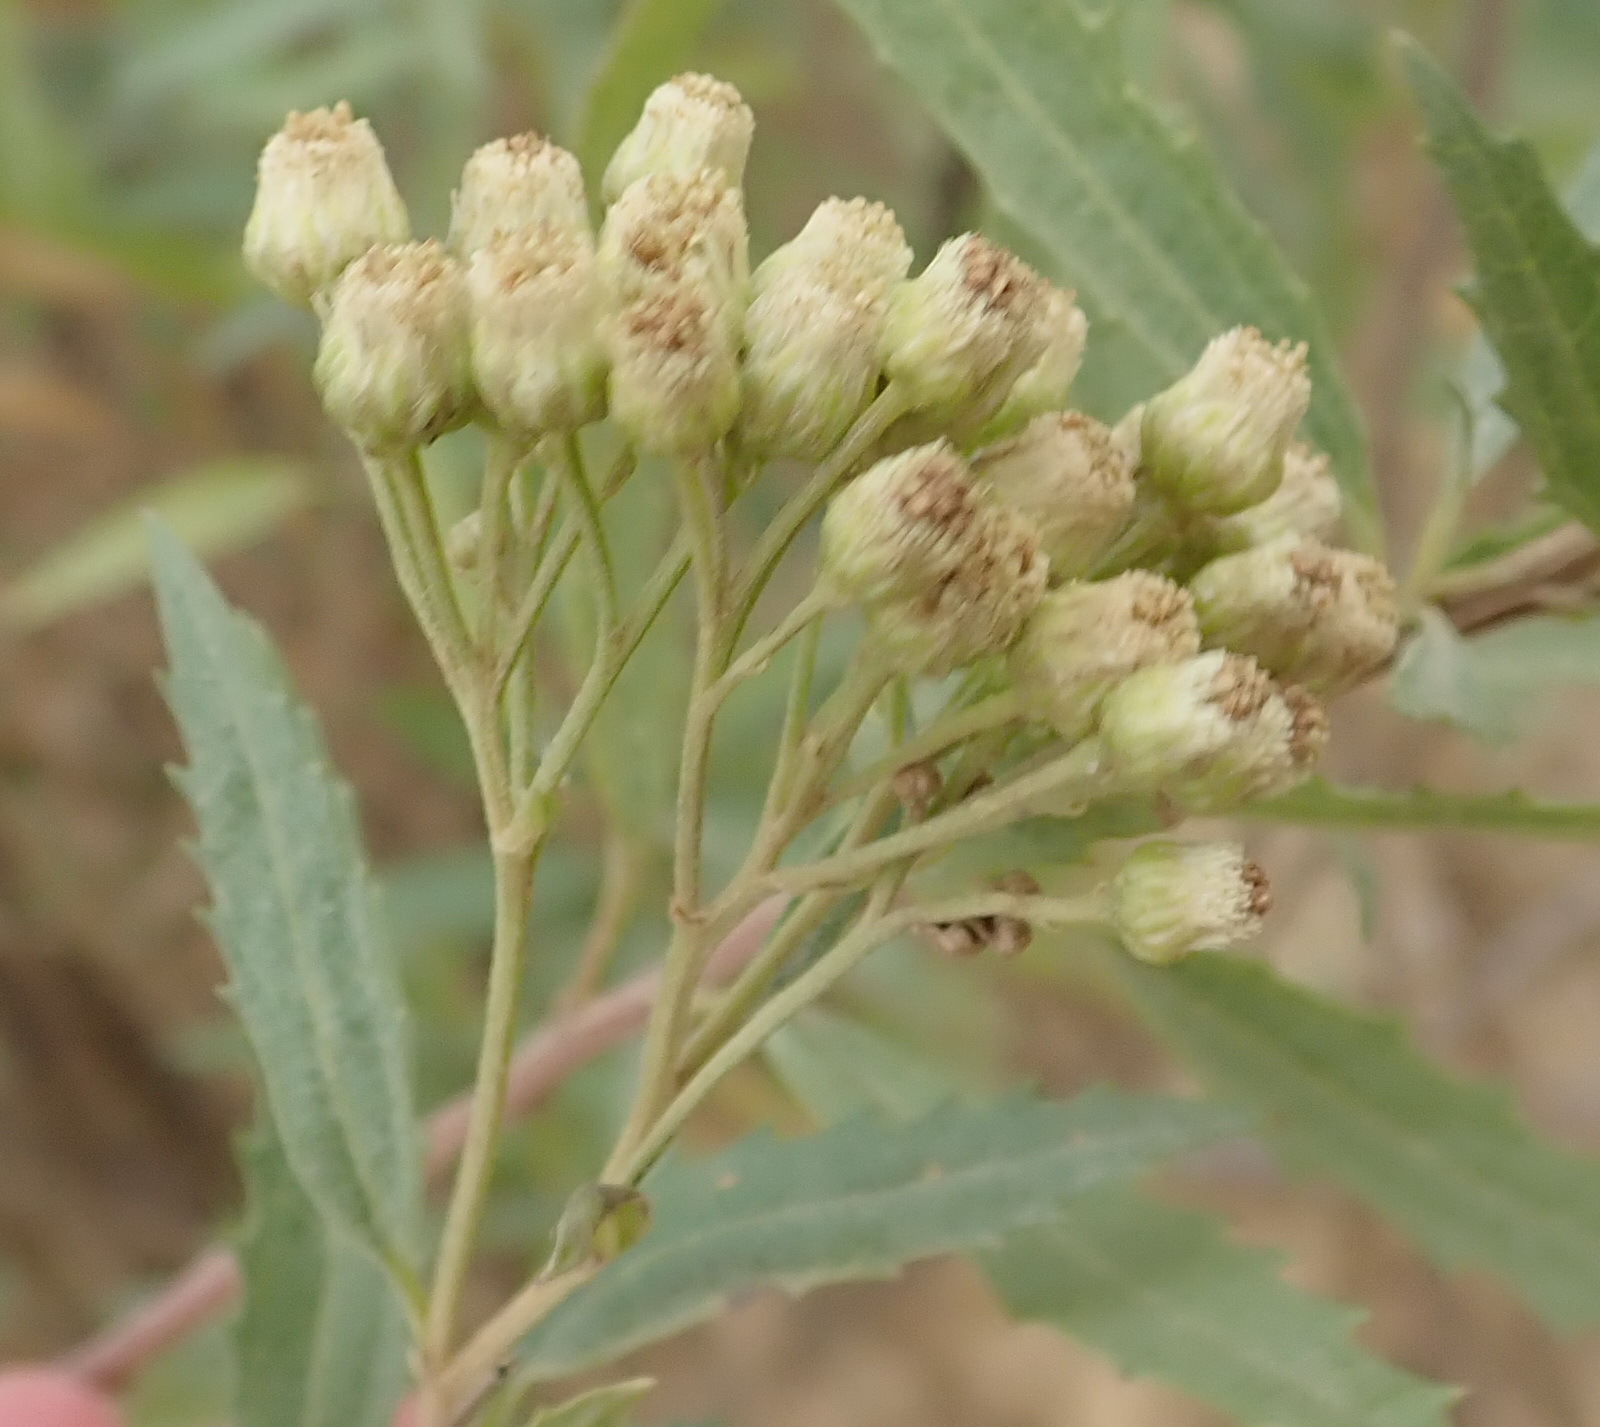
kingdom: Plantae
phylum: Tracheophyta
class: Magnoliopsida
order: Asterales
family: Asteraceae
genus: Nidorella
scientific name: Nidorella ivifolia
